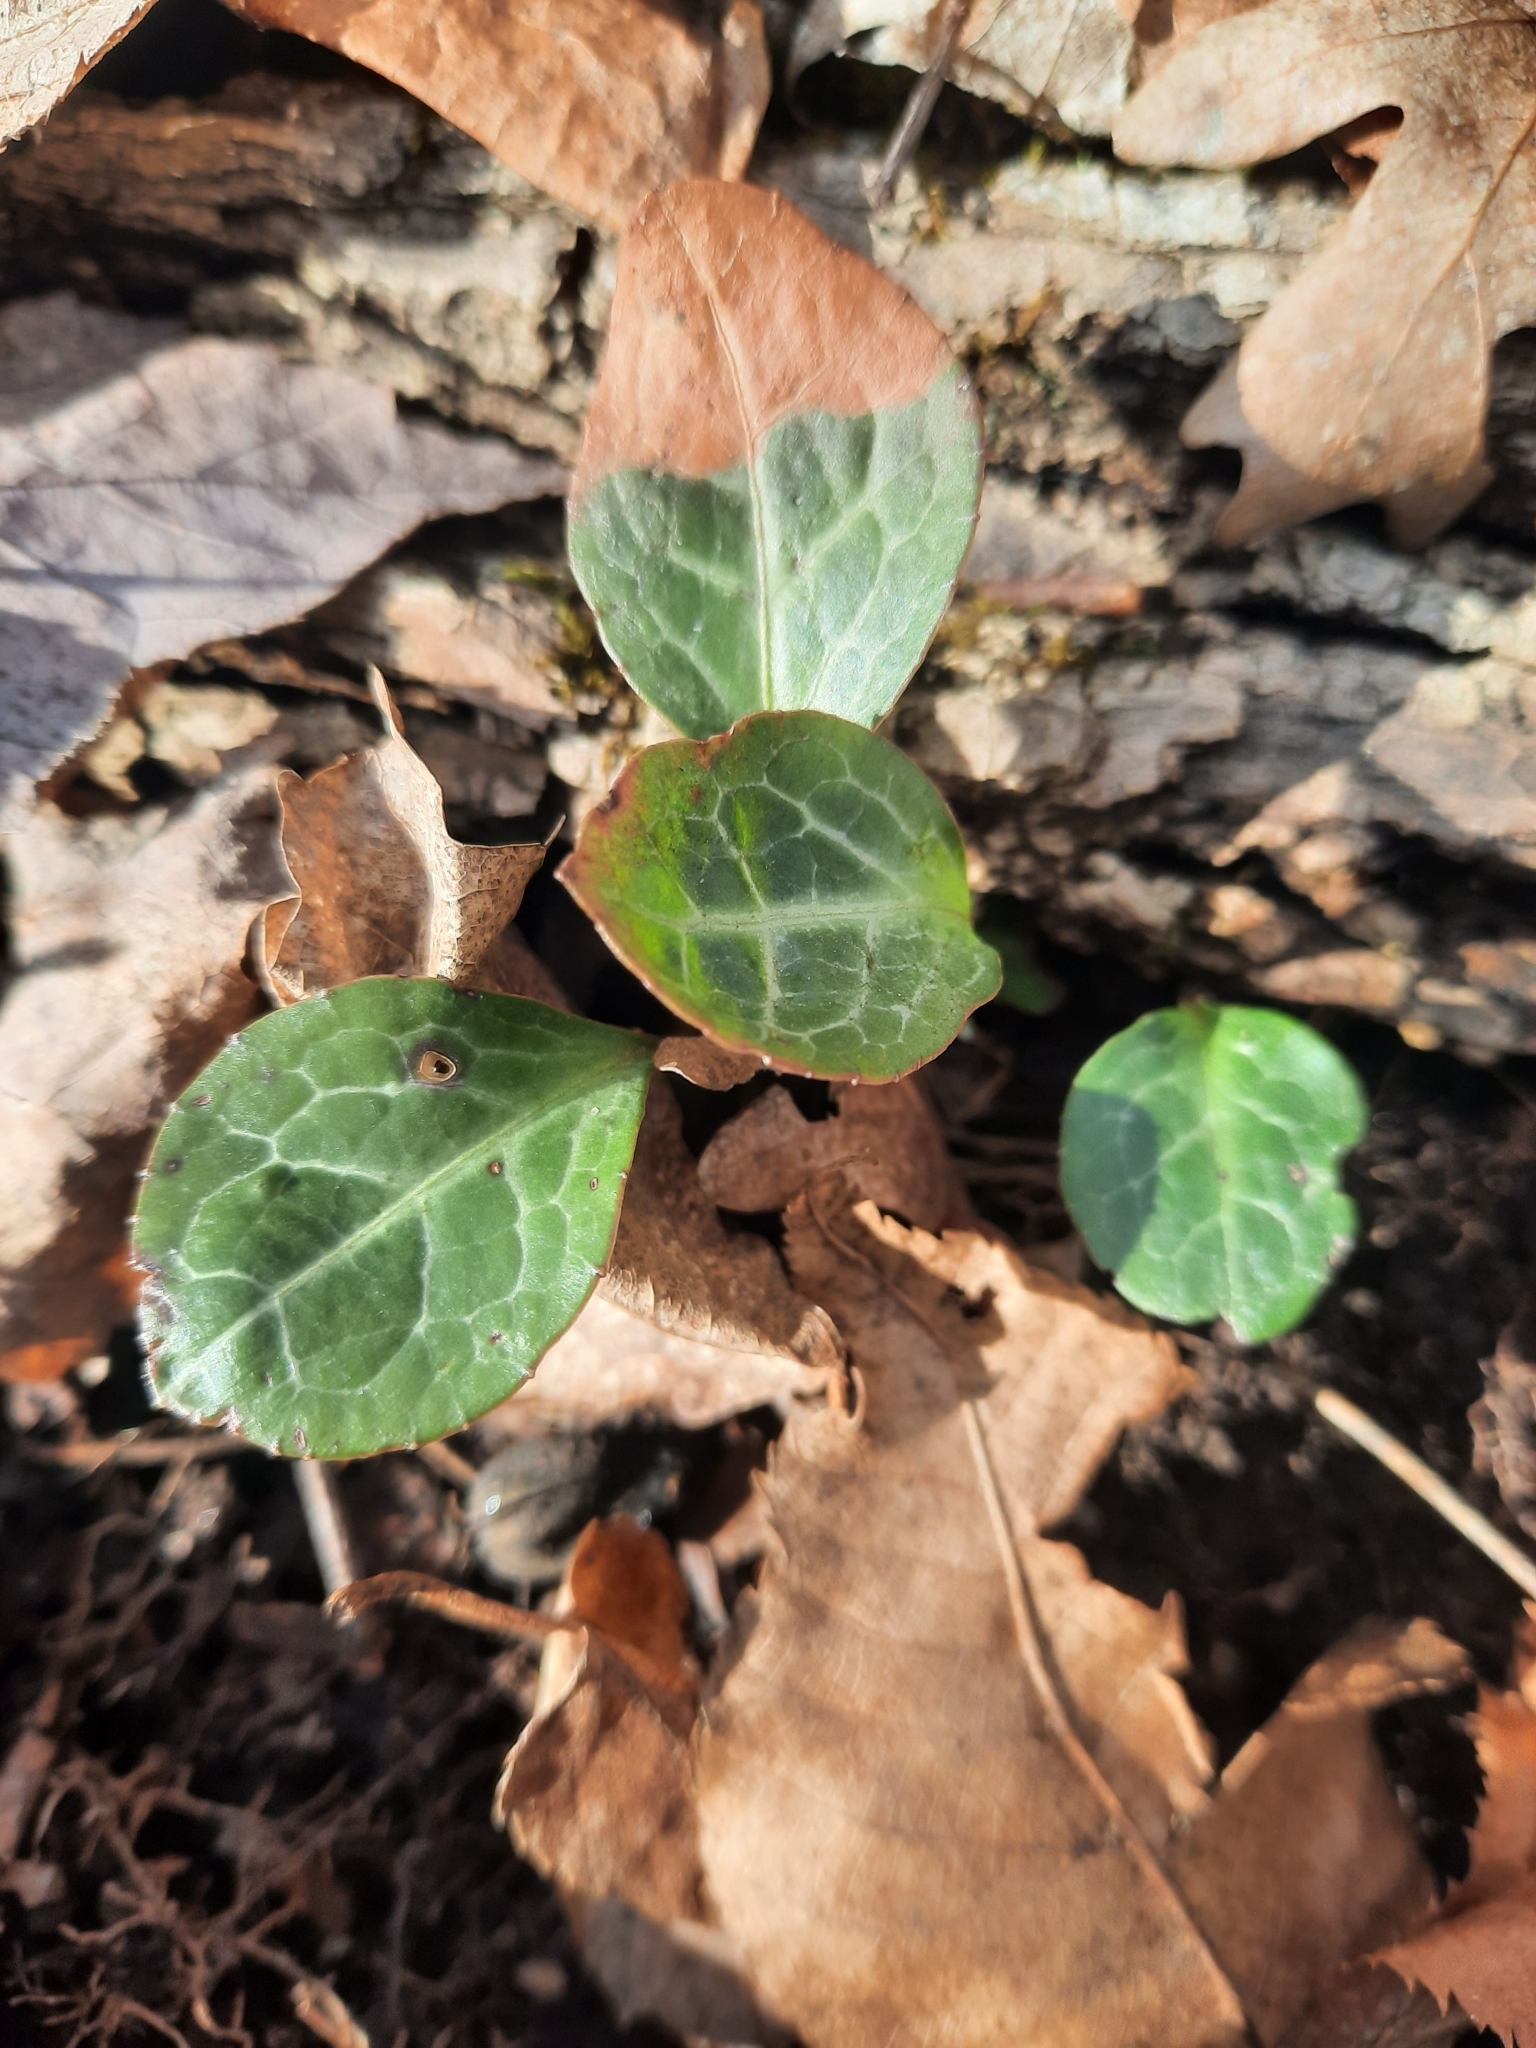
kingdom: Plantae
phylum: Tracheophyta
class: Magnoliopsida
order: Ericales
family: Ericaceae
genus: Pyrola
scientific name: Pyrola americana
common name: American wintergreen
